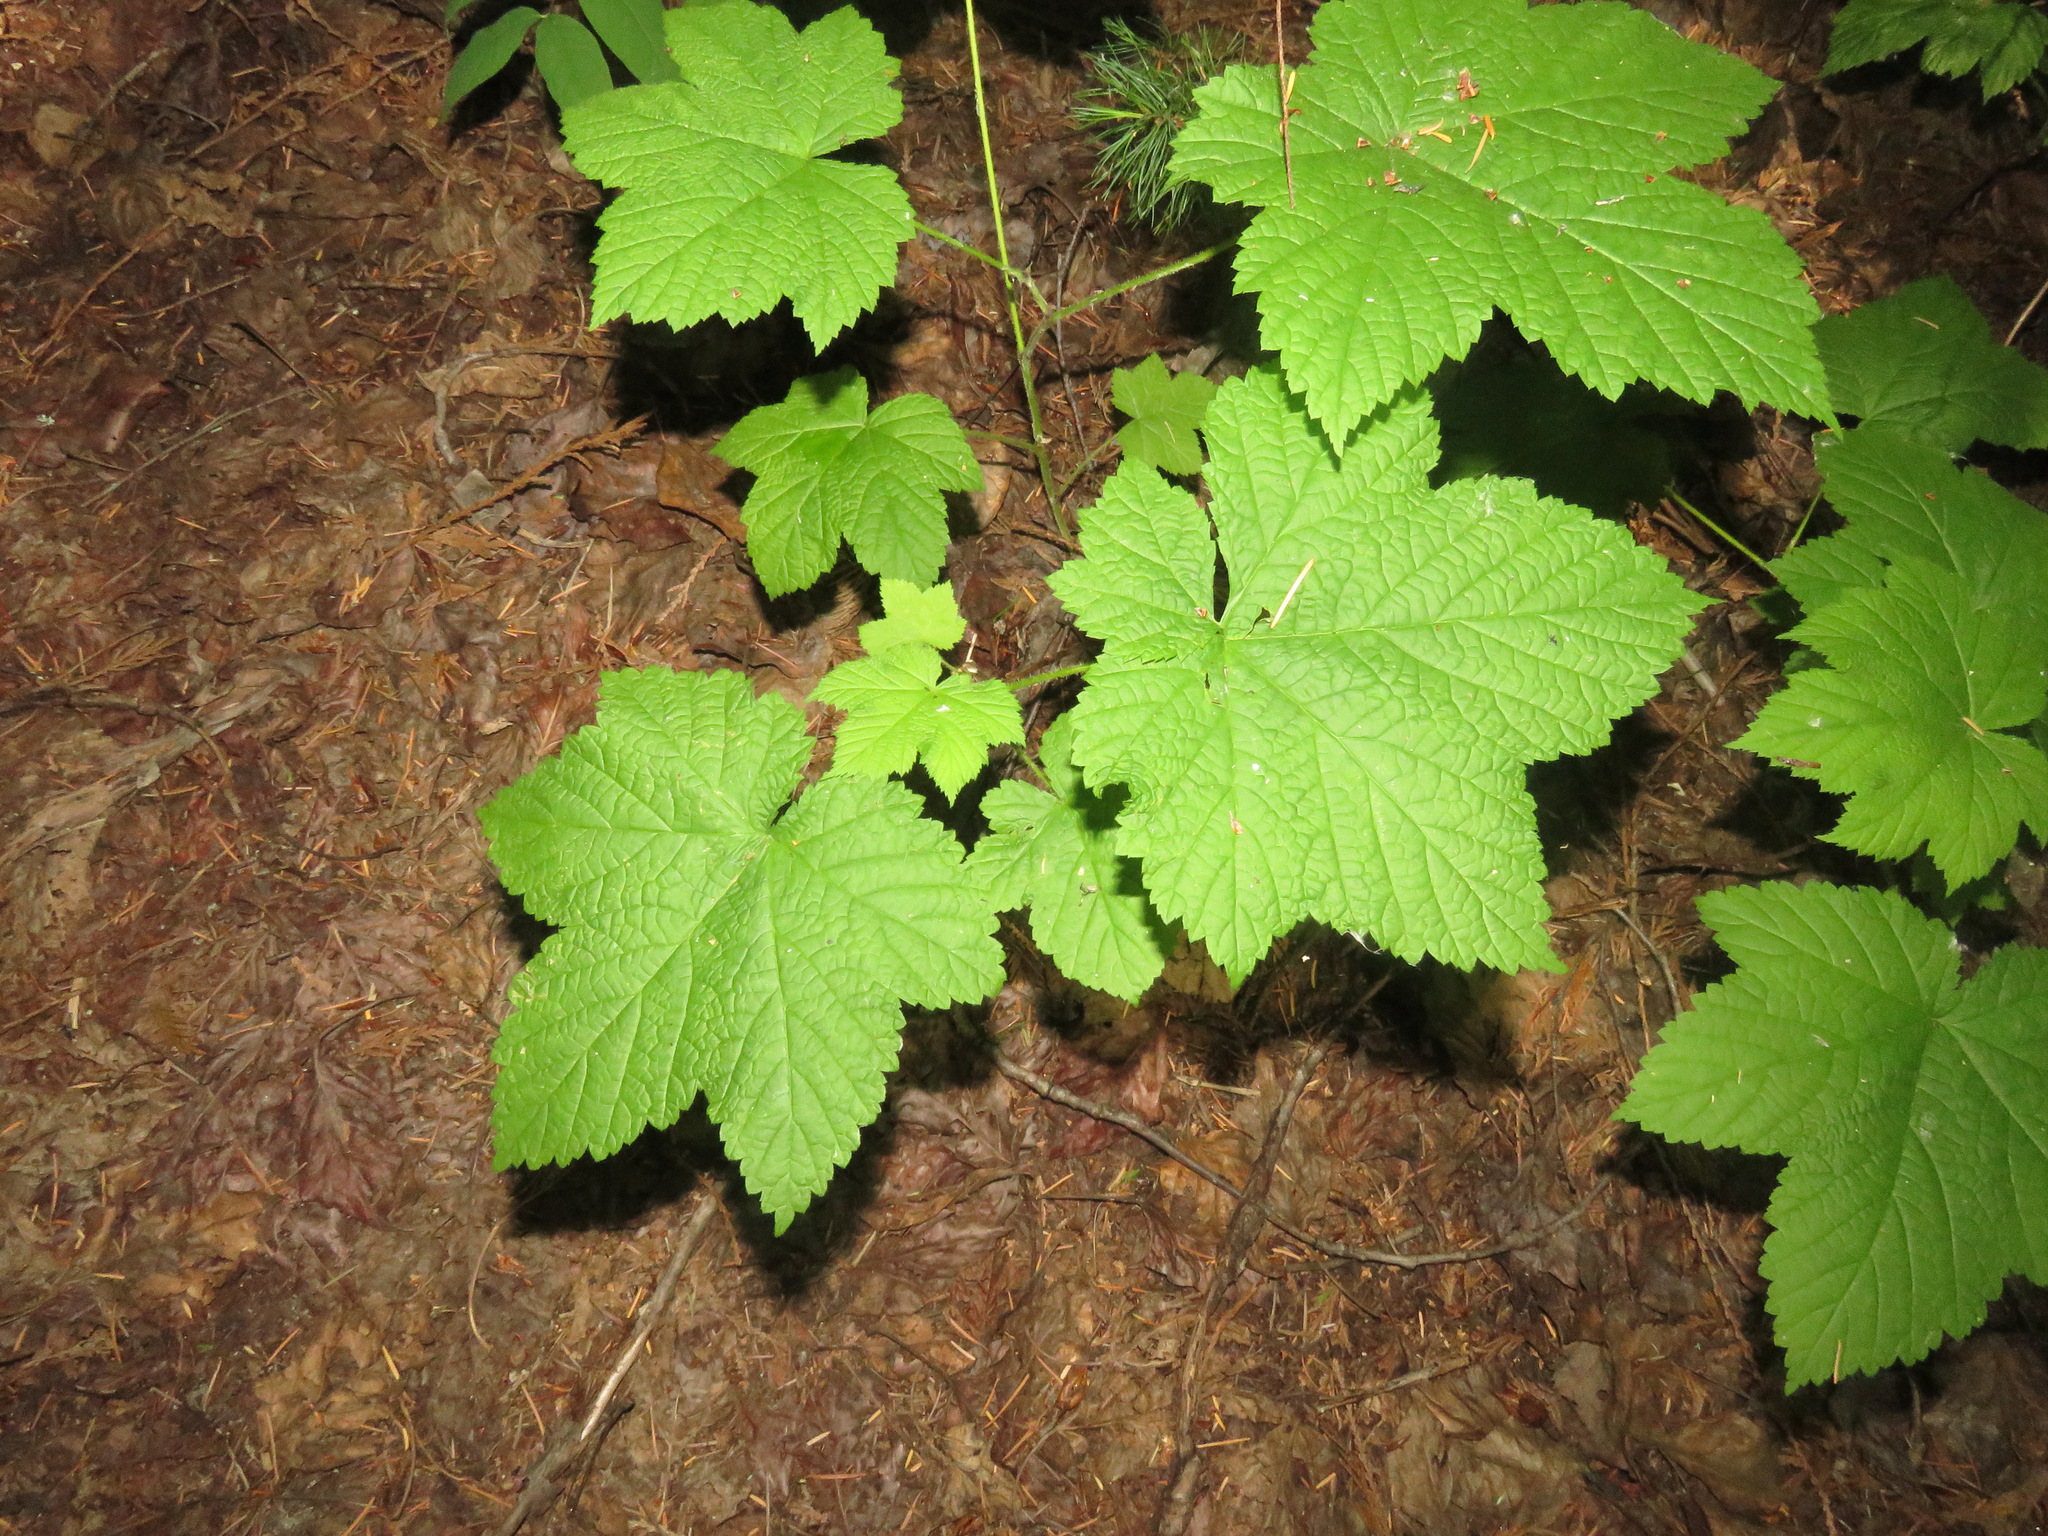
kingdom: Plantae
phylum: Tracheophyta
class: Magnoliopsida
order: Rosales
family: Rosaceae
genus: Rubus
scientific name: Rubus parviflorus
